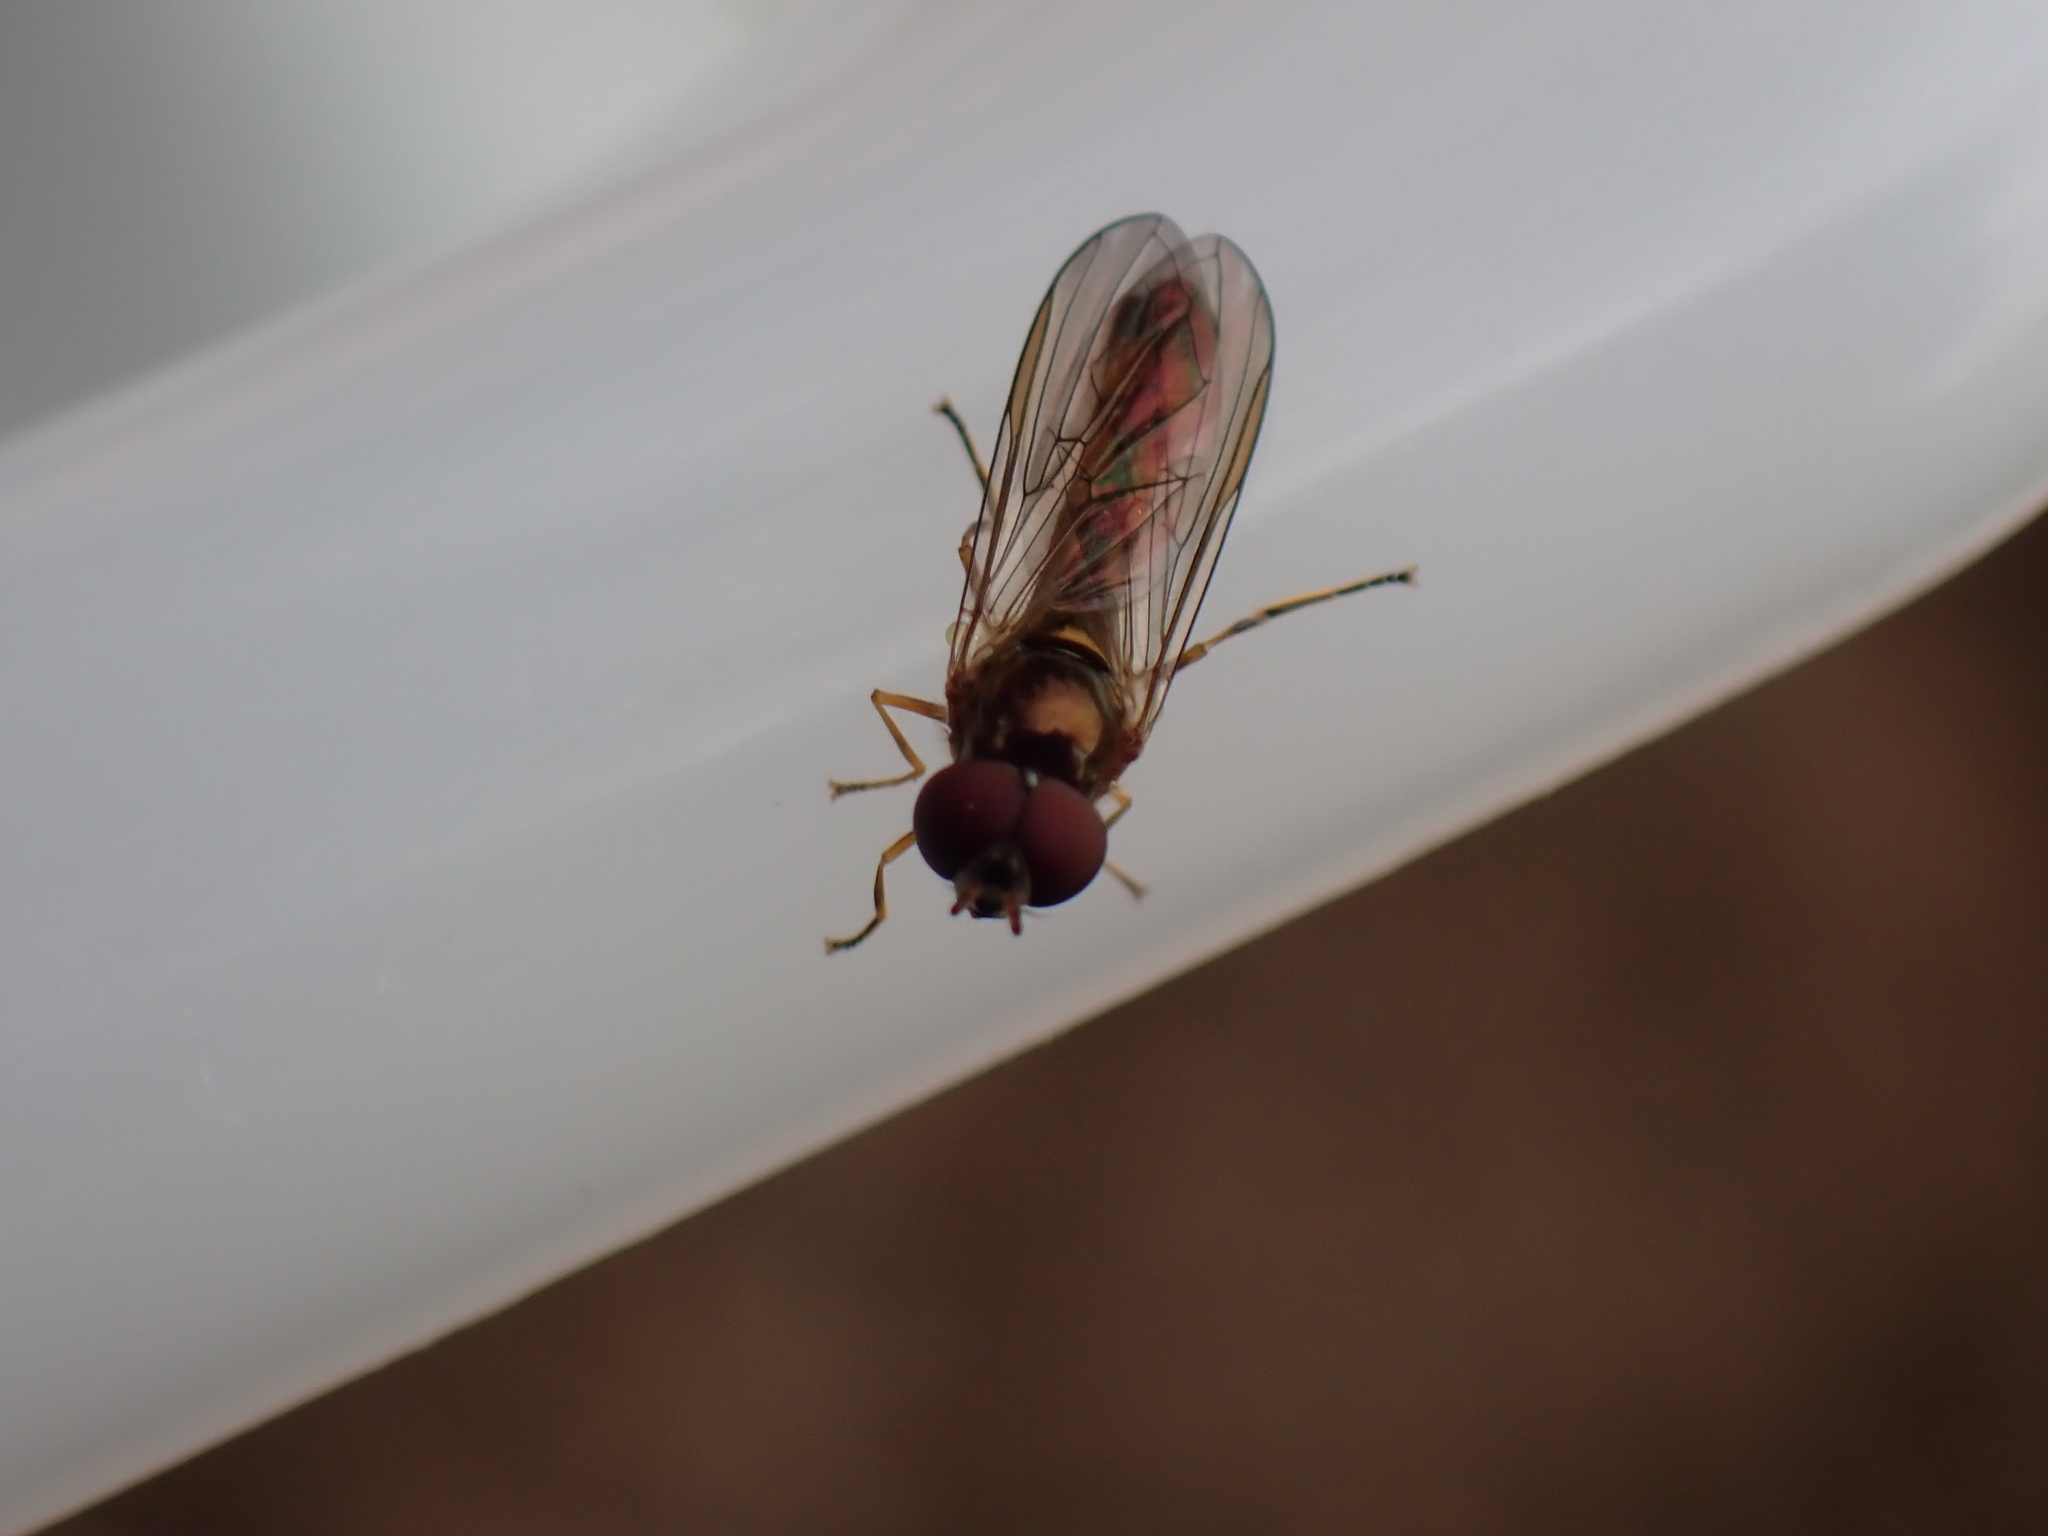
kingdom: Animalia
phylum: Arthropoda
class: Insecta
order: Diptera
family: Syrphidae
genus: Melanostoma
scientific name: Melanostoma scalare
